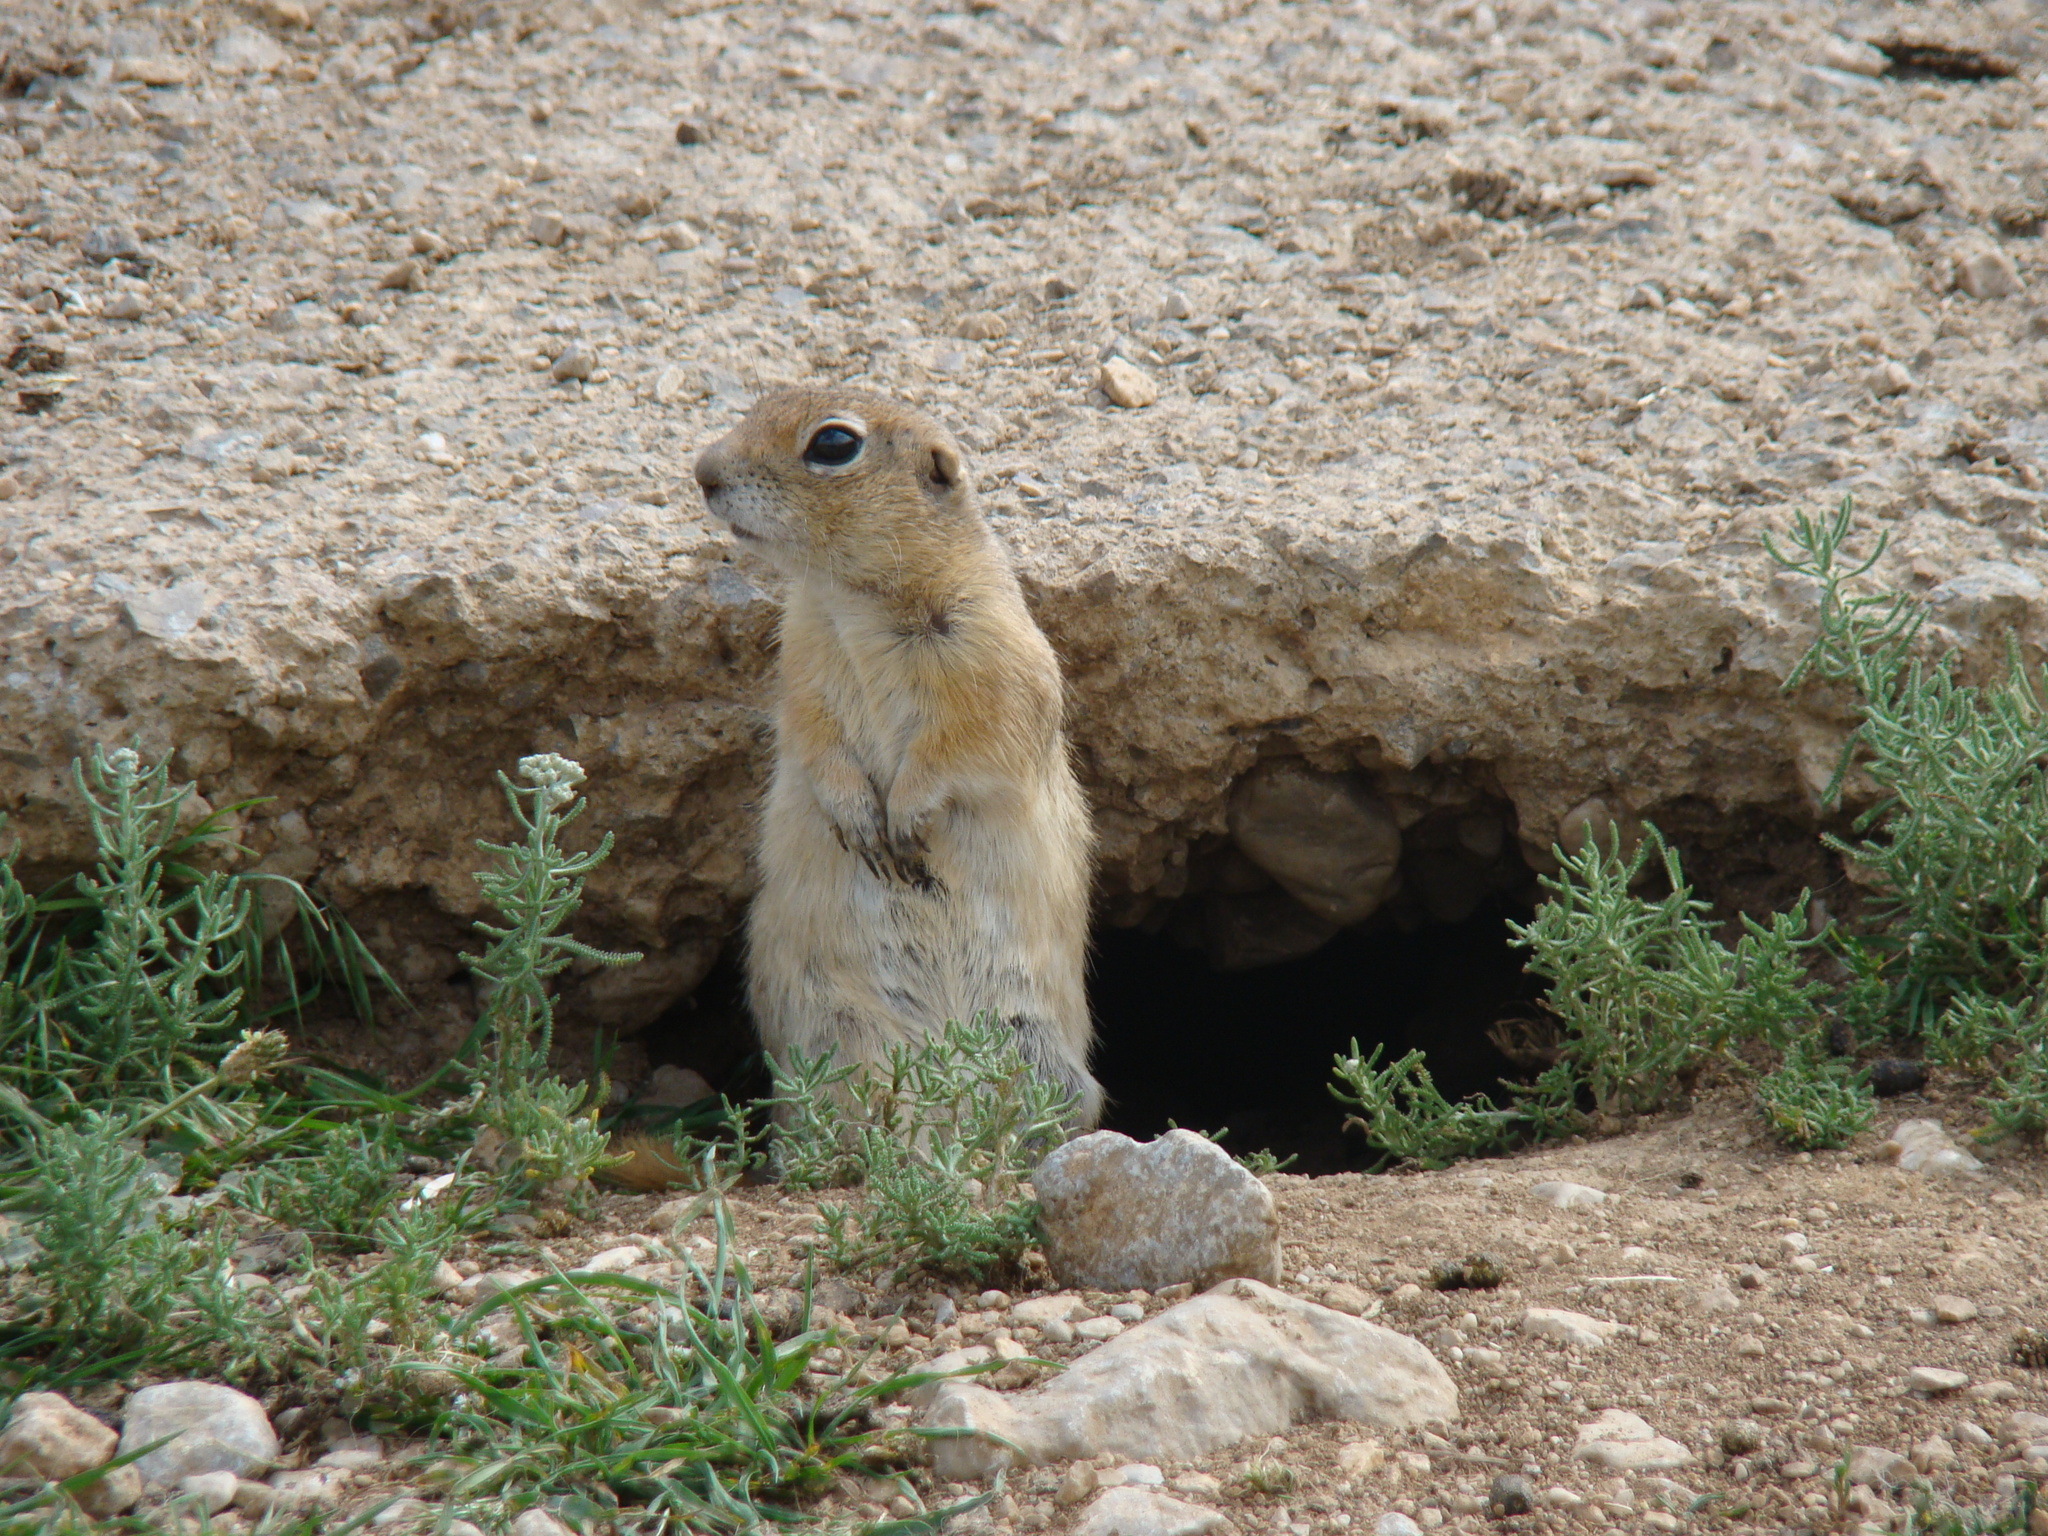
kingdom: Animalia
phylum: Chordata
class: Mammalia
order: Rodentia
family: Sciuridae
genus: Spermophilus
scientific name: Spermophilus xanthoprymnus
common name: Asia minor ground squirrel
